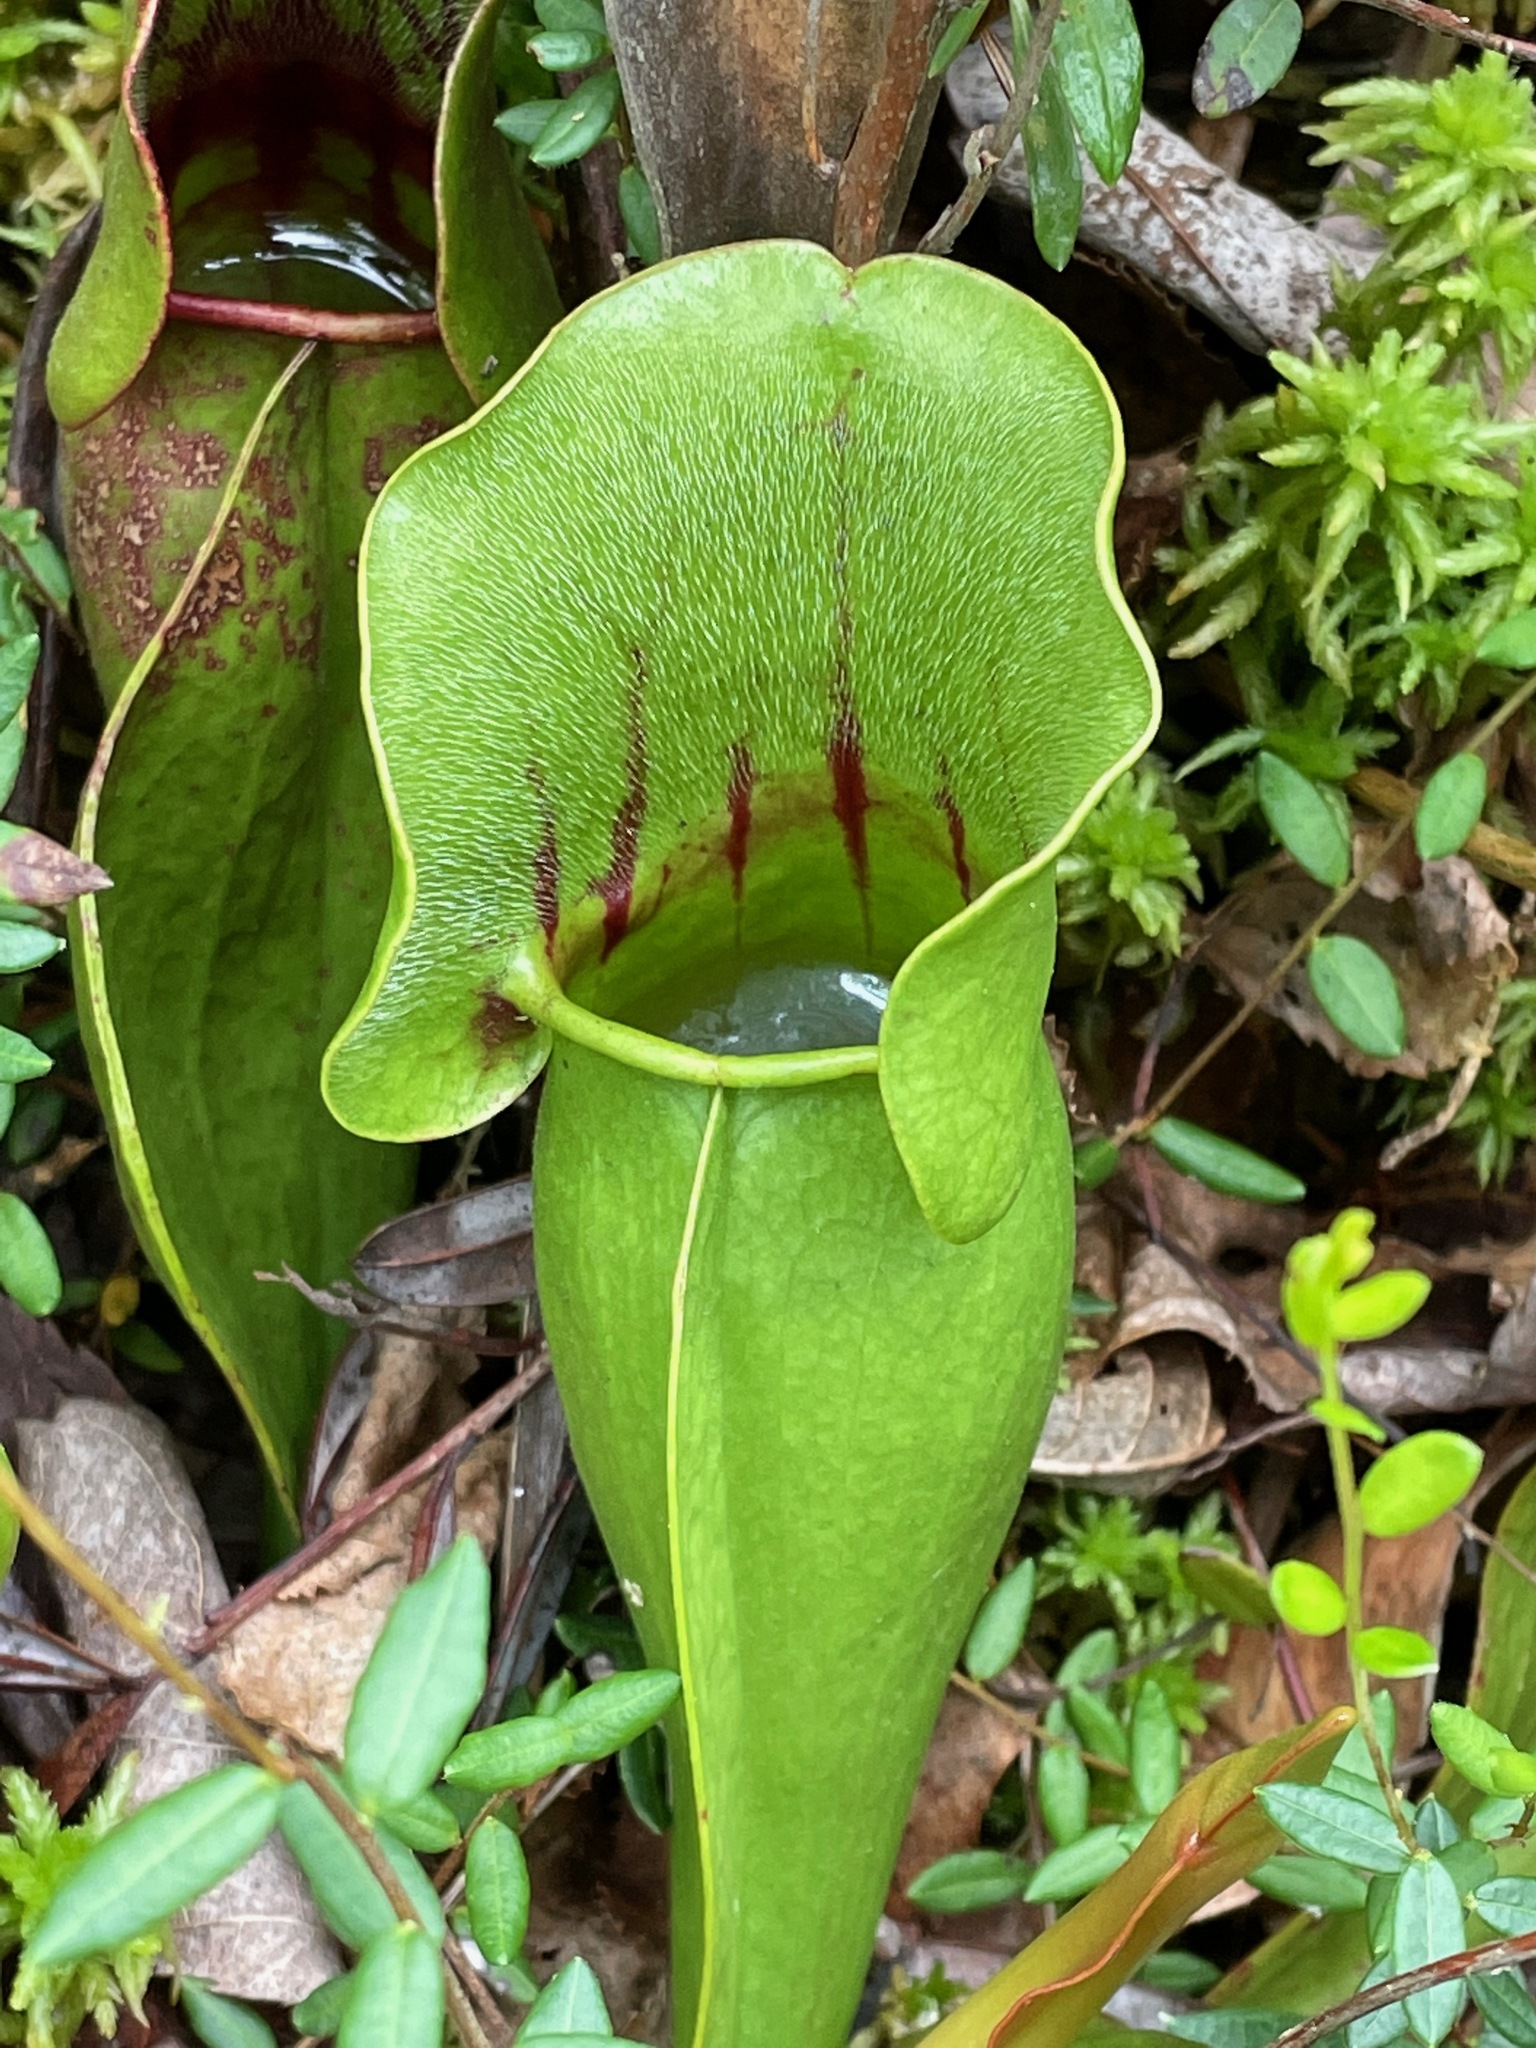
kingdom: Plantae
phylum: Tracheophyta
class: Magnoliopsida
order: Ericales
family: Sarraceniaceae
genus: Sarracenia
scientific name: Sarracenia purpurea
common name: Pitcherplant
